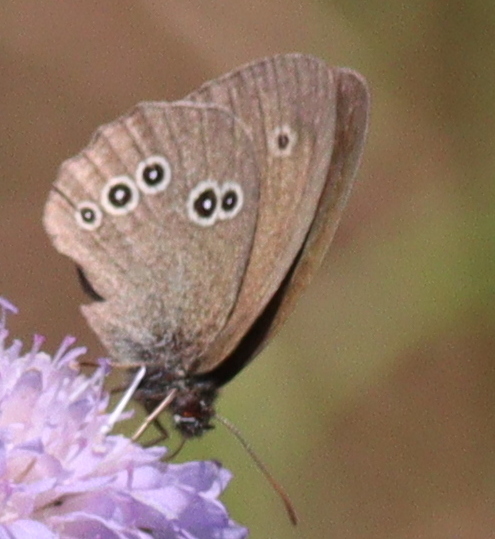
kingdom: Animalia
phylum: Arthropoda
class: Insecta
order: Lepidoptera
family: Nymphalidae
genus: Aphantopus
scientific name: Aphantopus hyperantus
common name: Ringlet
